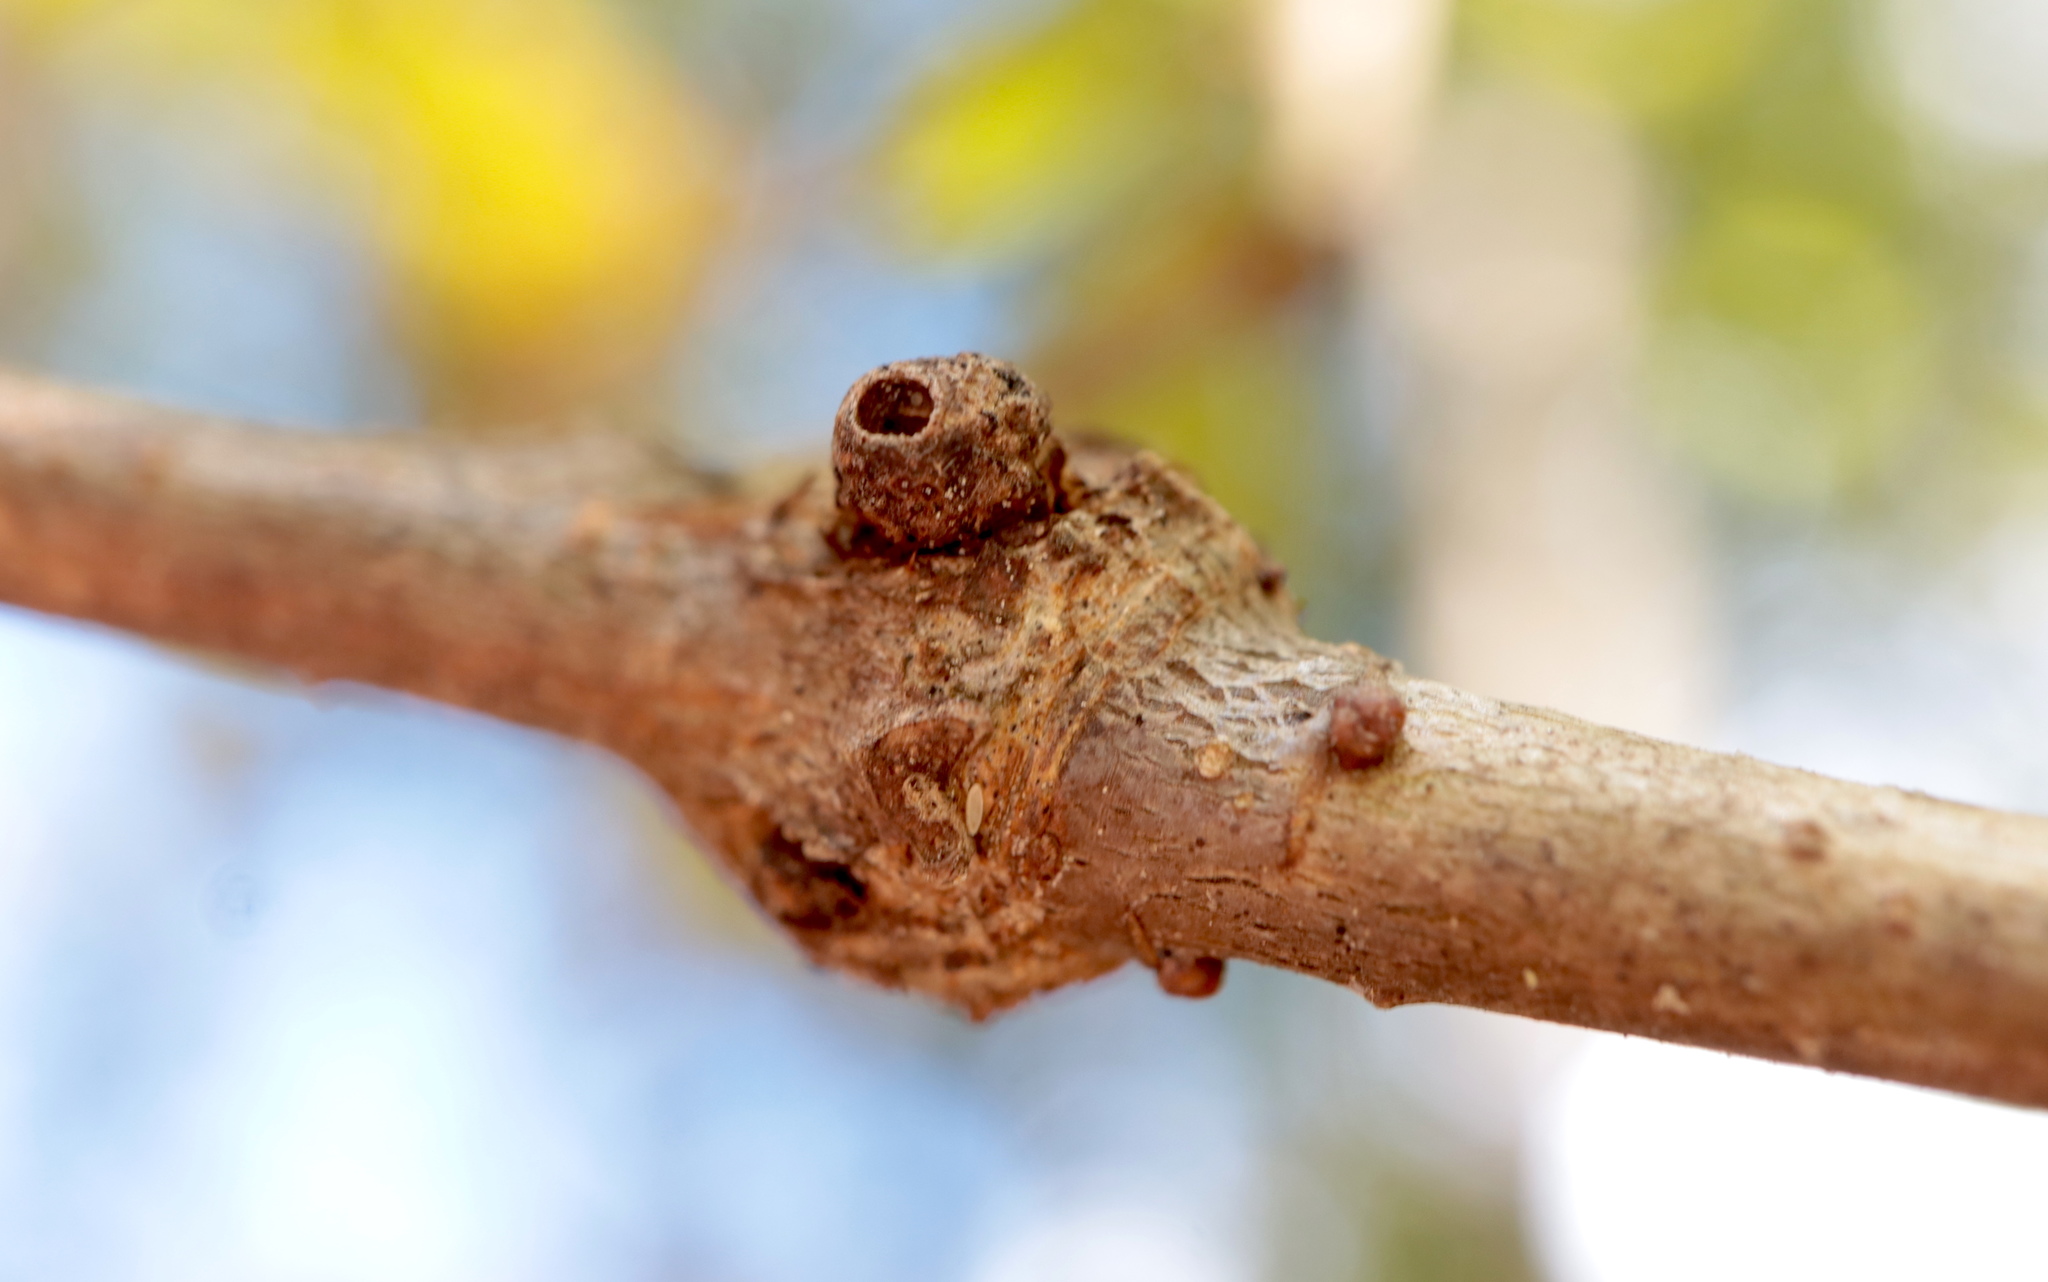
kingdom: Animalia
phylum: Arthropoda
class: Insecta
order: Hymenoptera
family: Cynipidae
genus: Andricus
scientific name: Andricus
